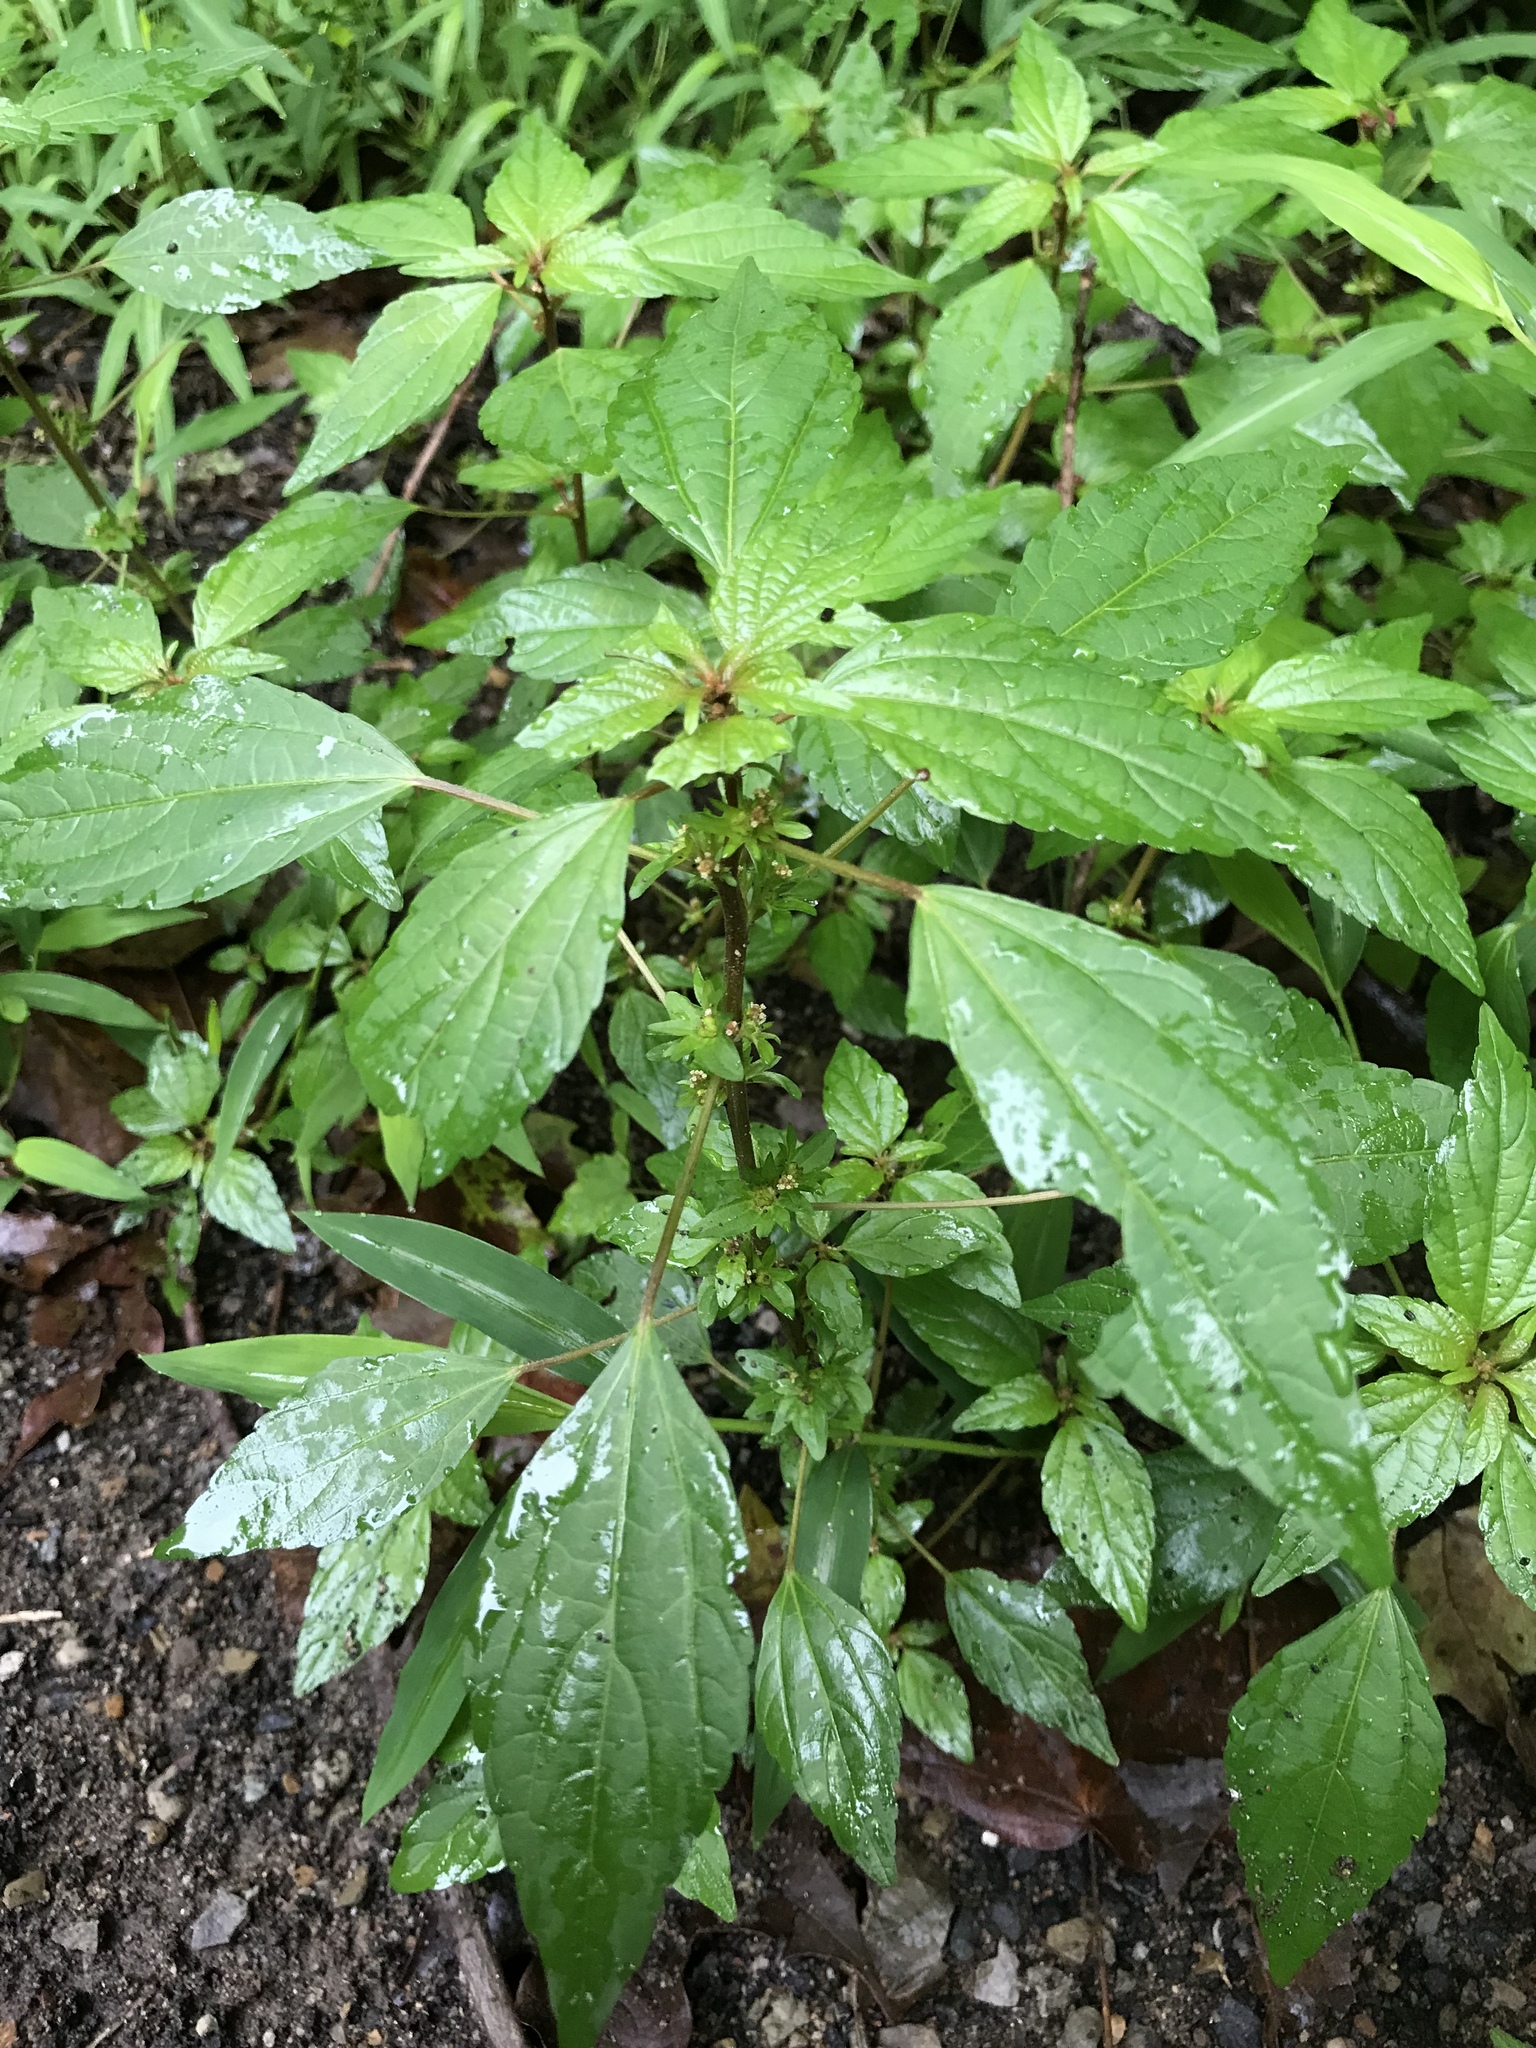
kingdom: Plantae
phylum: Tracheophyta
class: Magnoliopsida
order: Malpighiales
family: Euphorbiaceae
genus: Acalypha
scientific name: Acalypha rhomboidea
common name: Rhombic copperleaf
